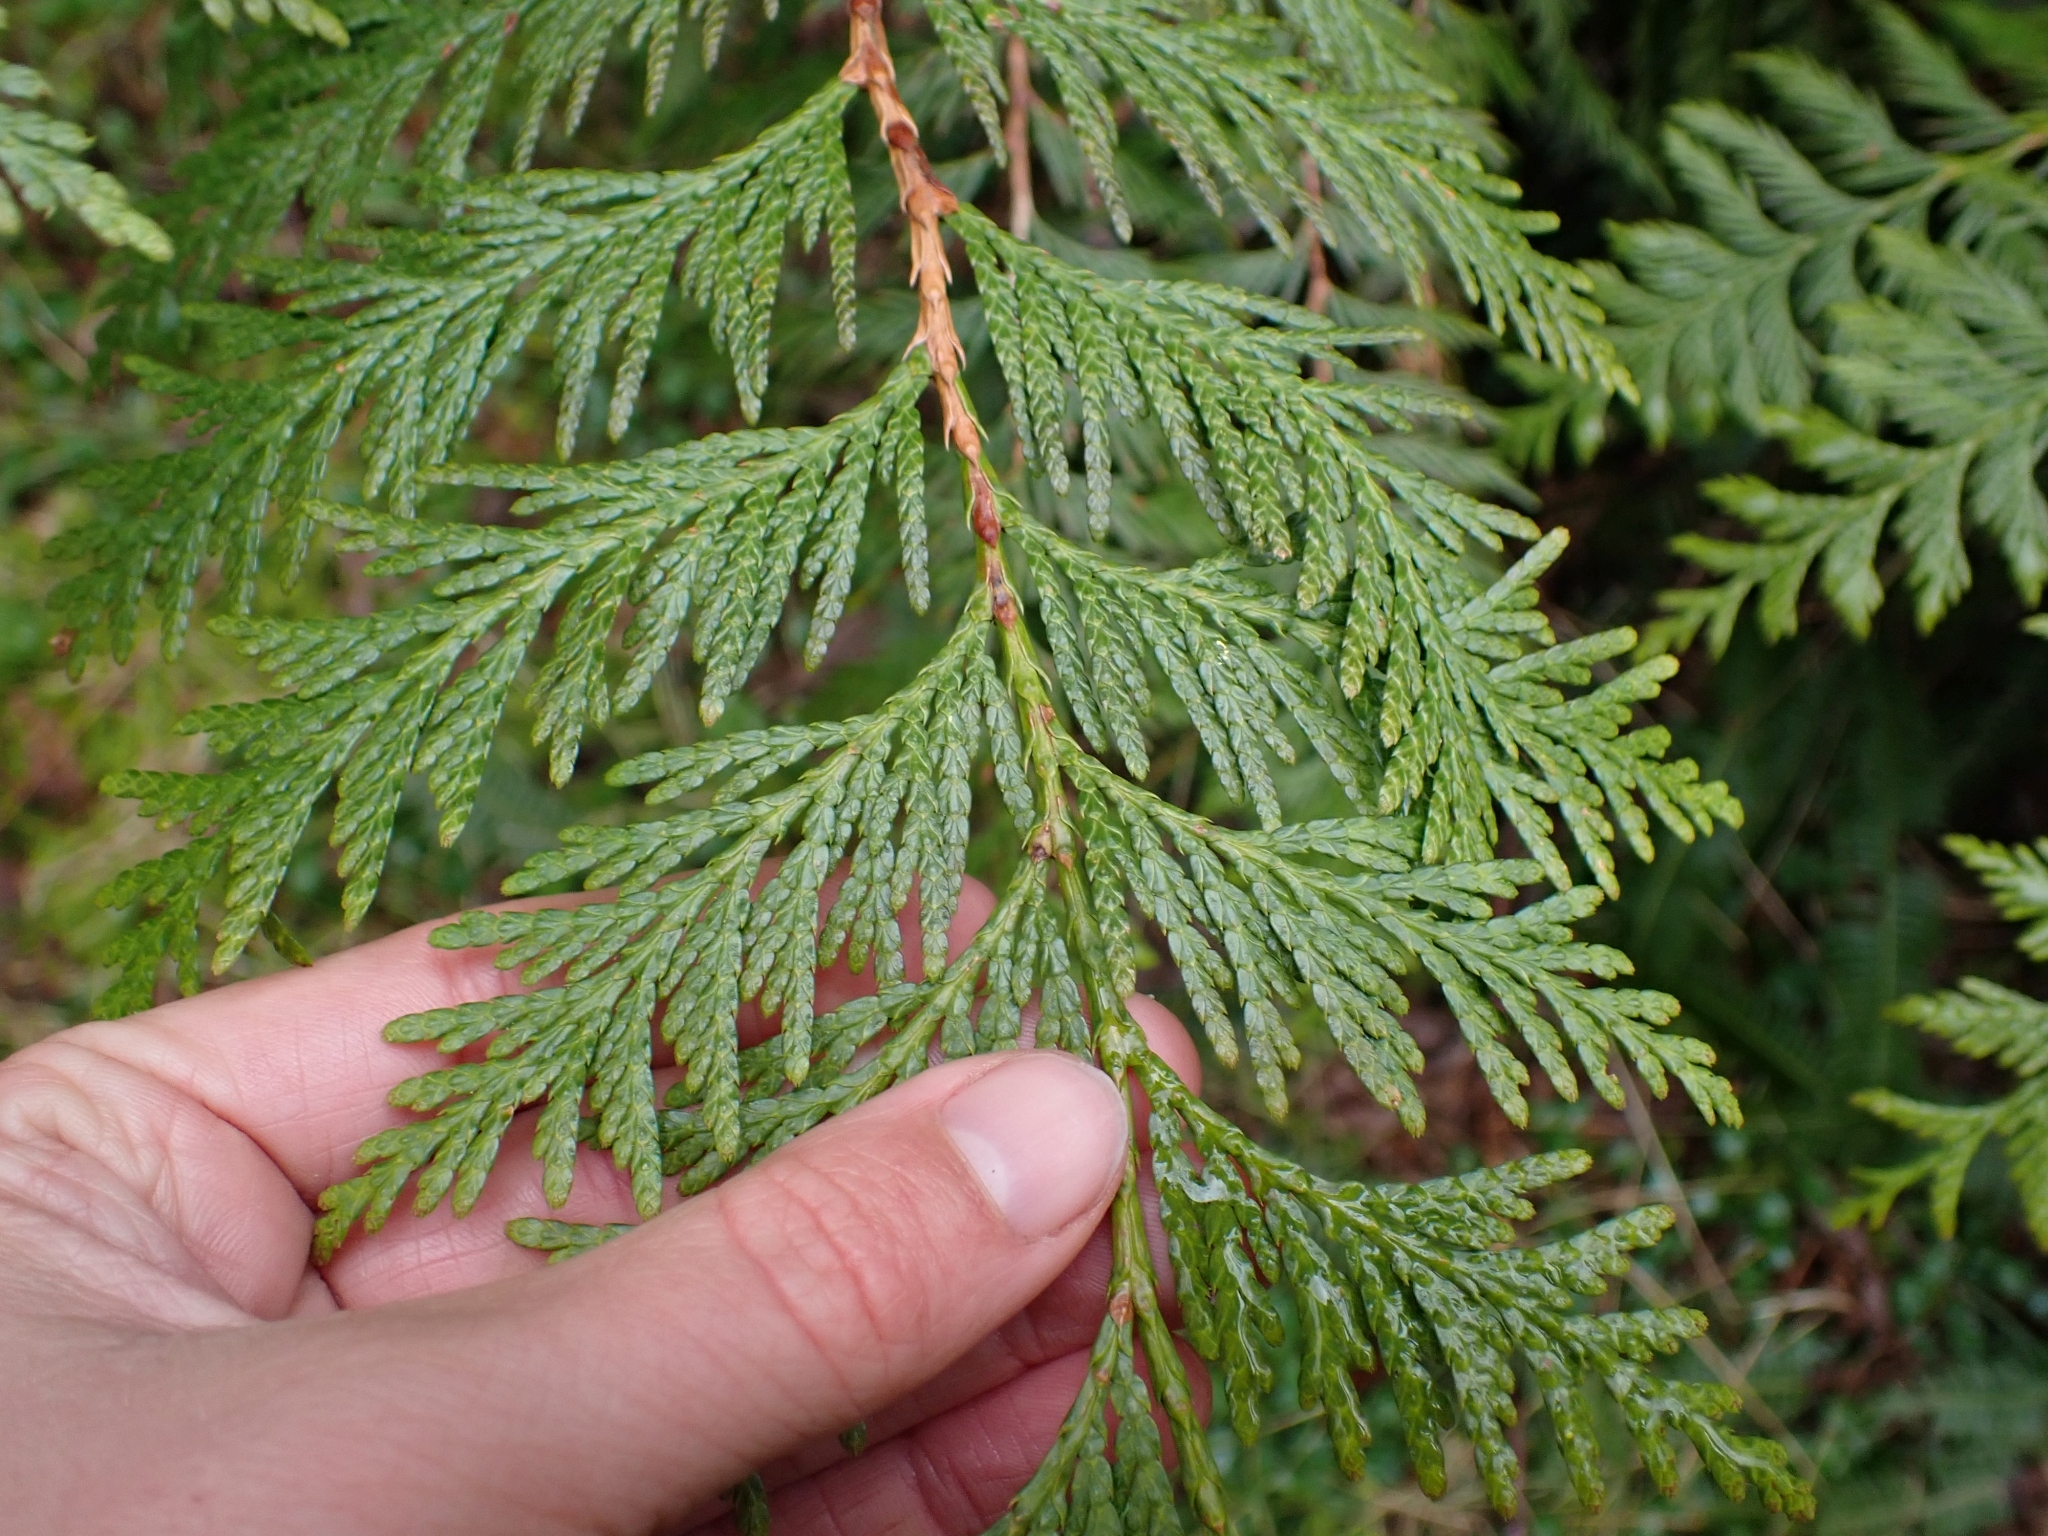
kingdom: Plantae
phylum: Tracheophyta
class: Pinopsida
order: Pinales
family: Cupressaceae
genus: Thuja
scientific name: Thuja plicata
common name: Western red-cedar
